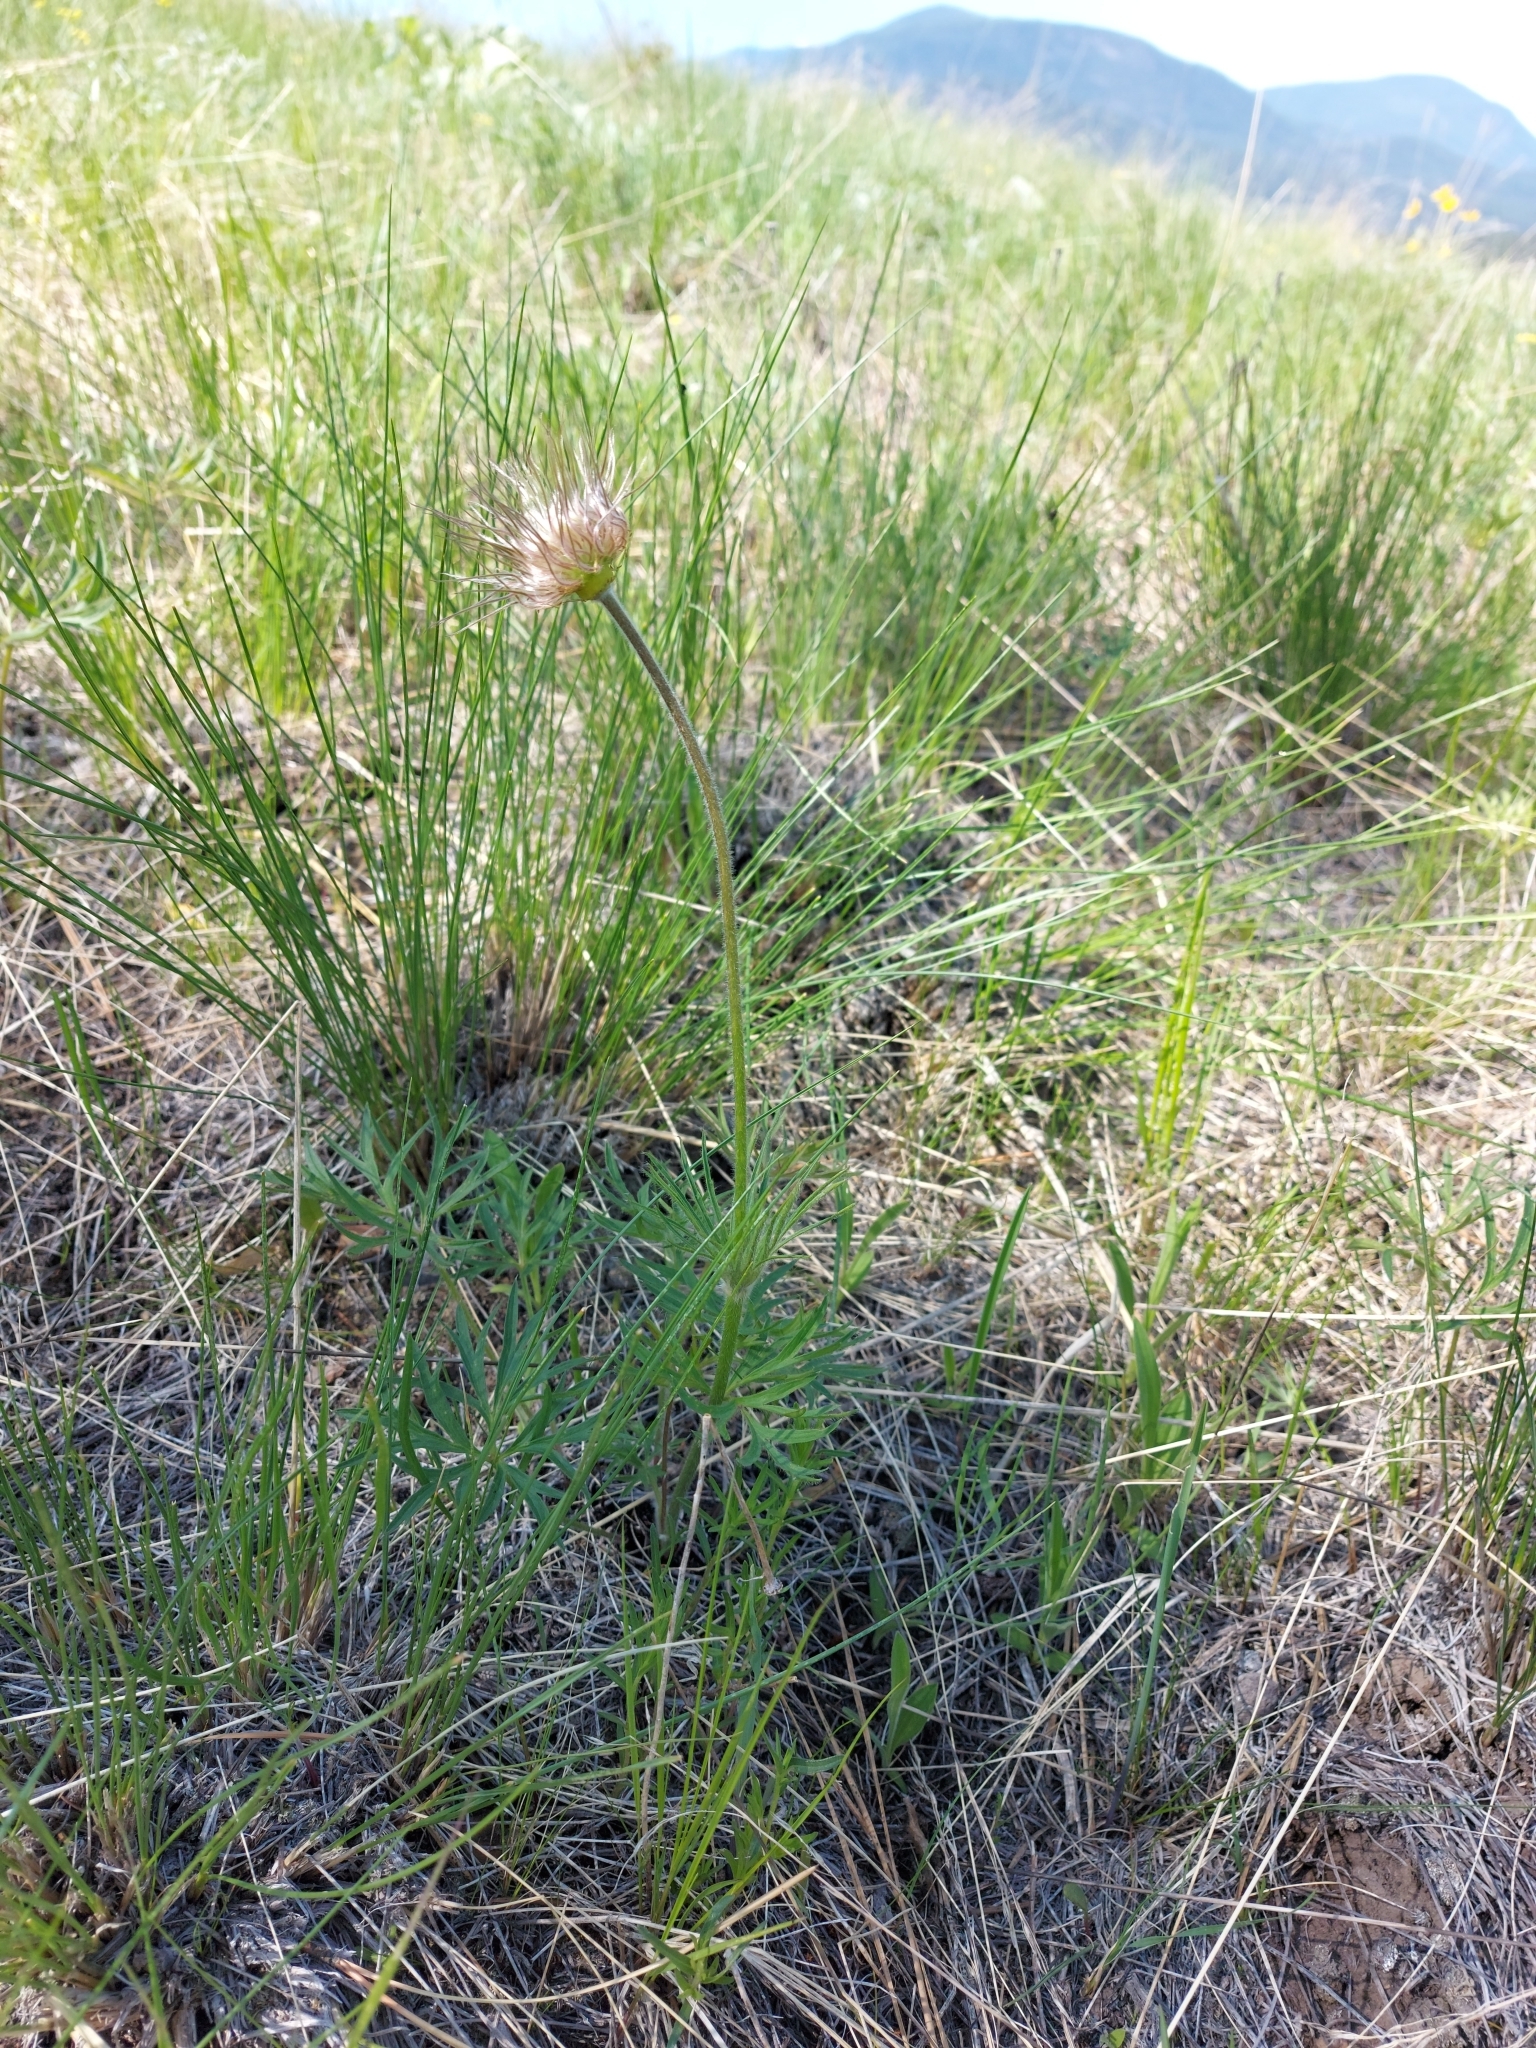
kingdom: Plantae
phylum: Tracheophyta
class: Magnoliopsida
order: Ranunculales
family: Ranunculaceae
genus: Pulsatilla
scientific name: Pulsatilla nuttalliana
